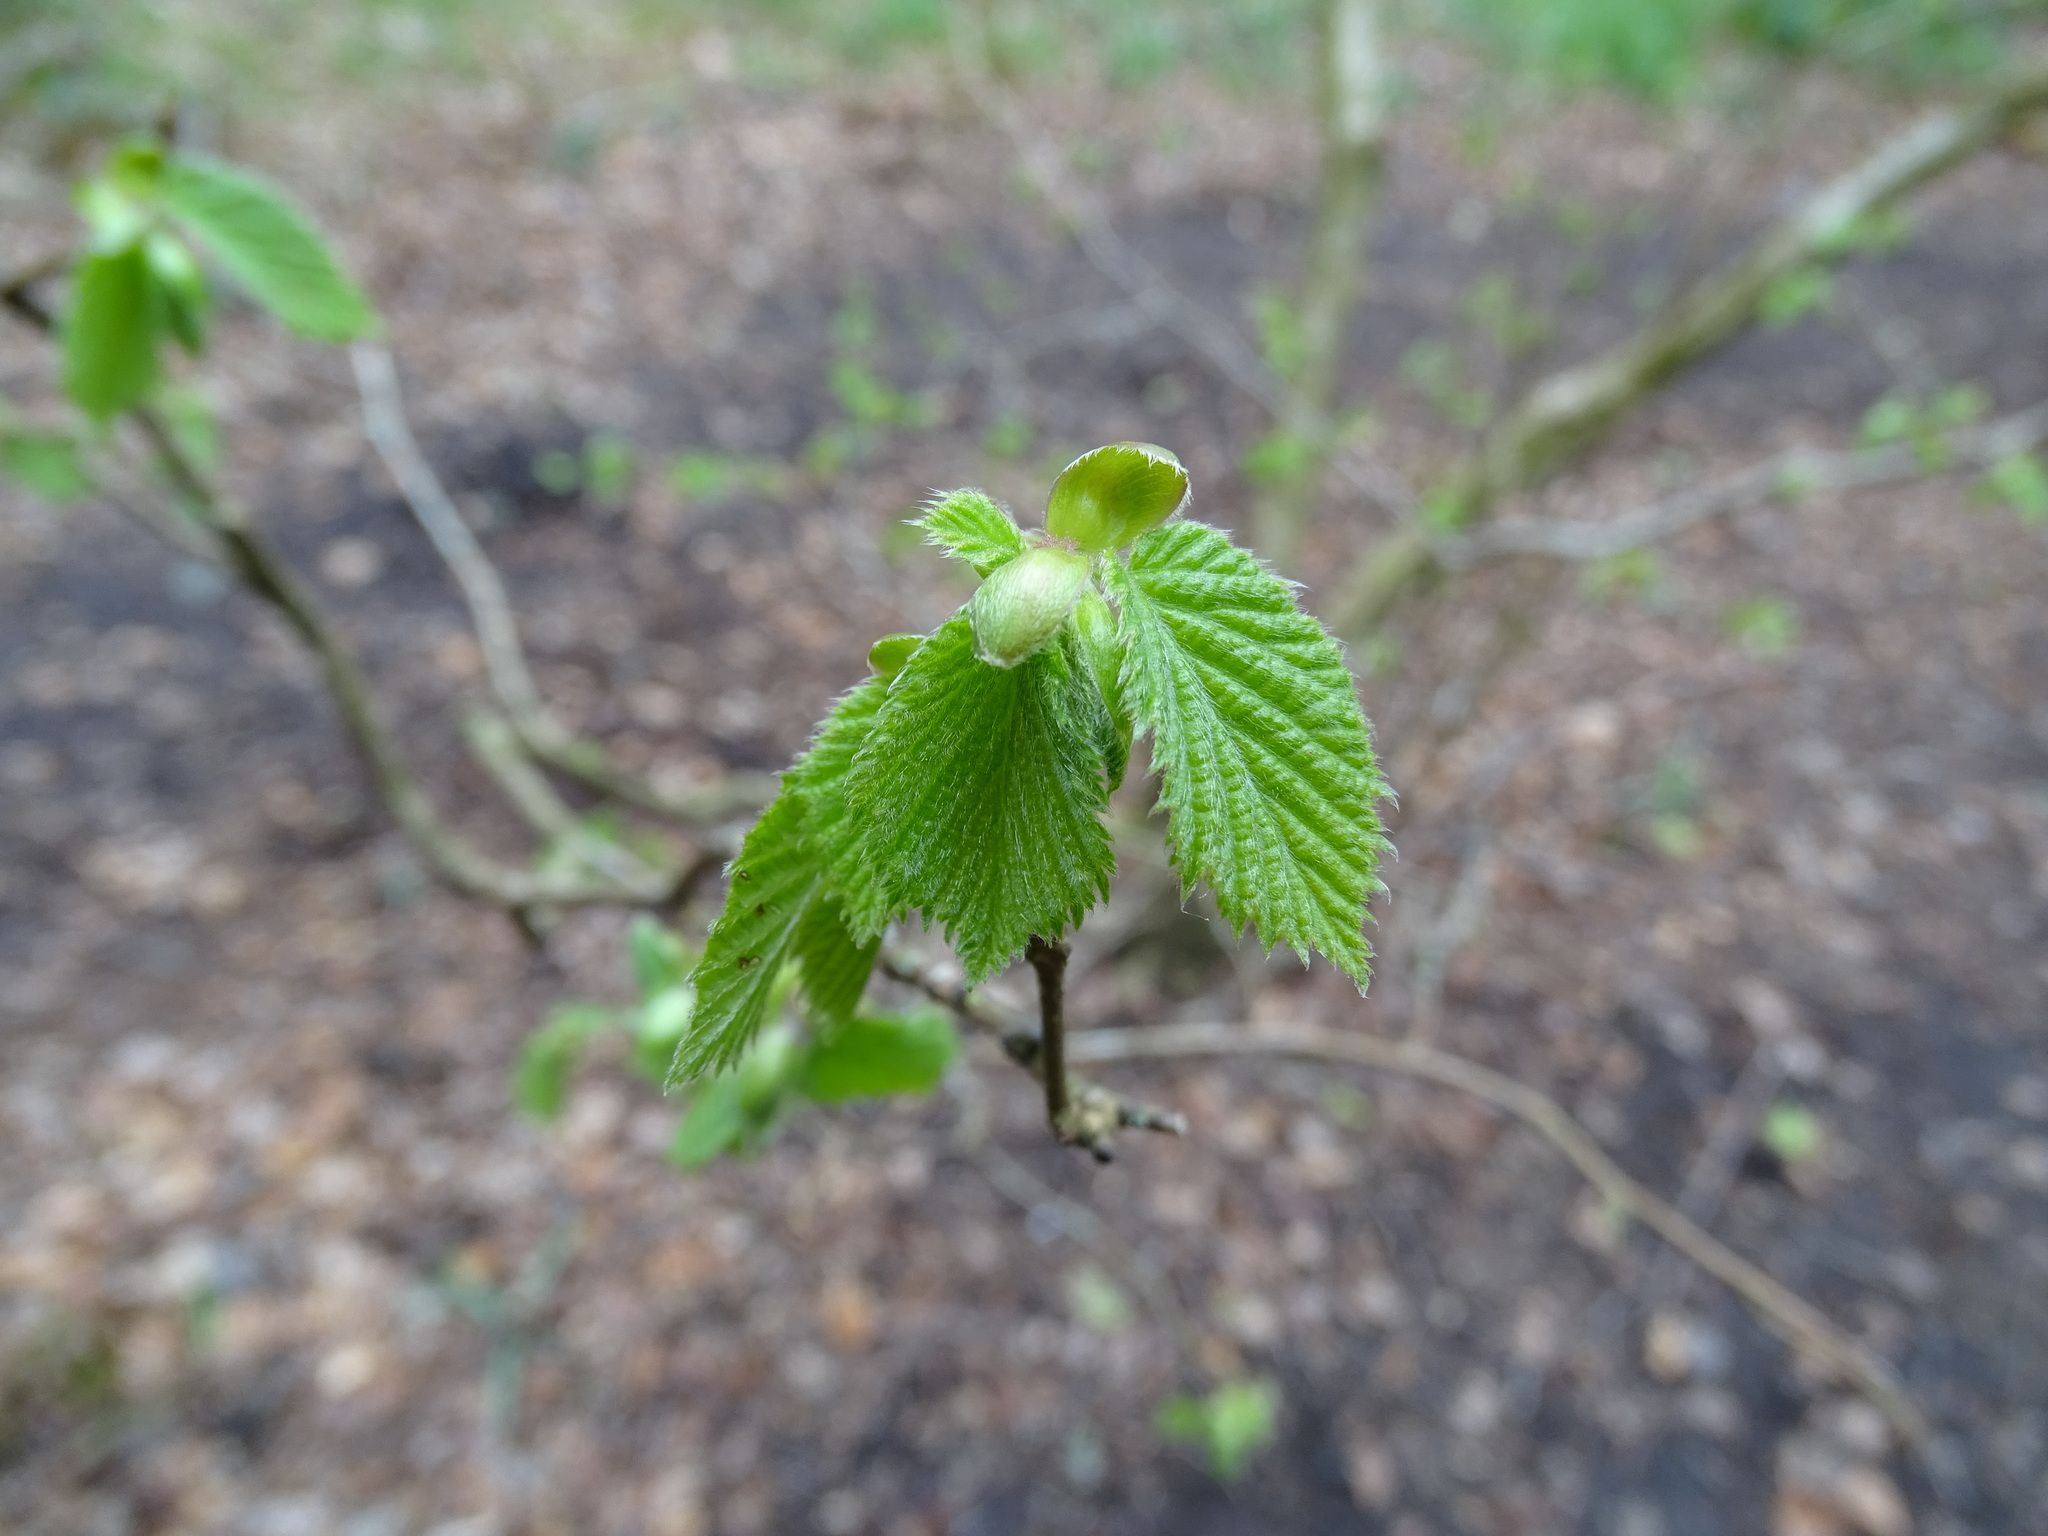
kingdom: Plantae
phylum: Tracheophyta
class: Magnoliopsida
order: Fagales
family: Betulaceae
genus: Corylus
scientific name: Corylus avellana
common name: European hazel
